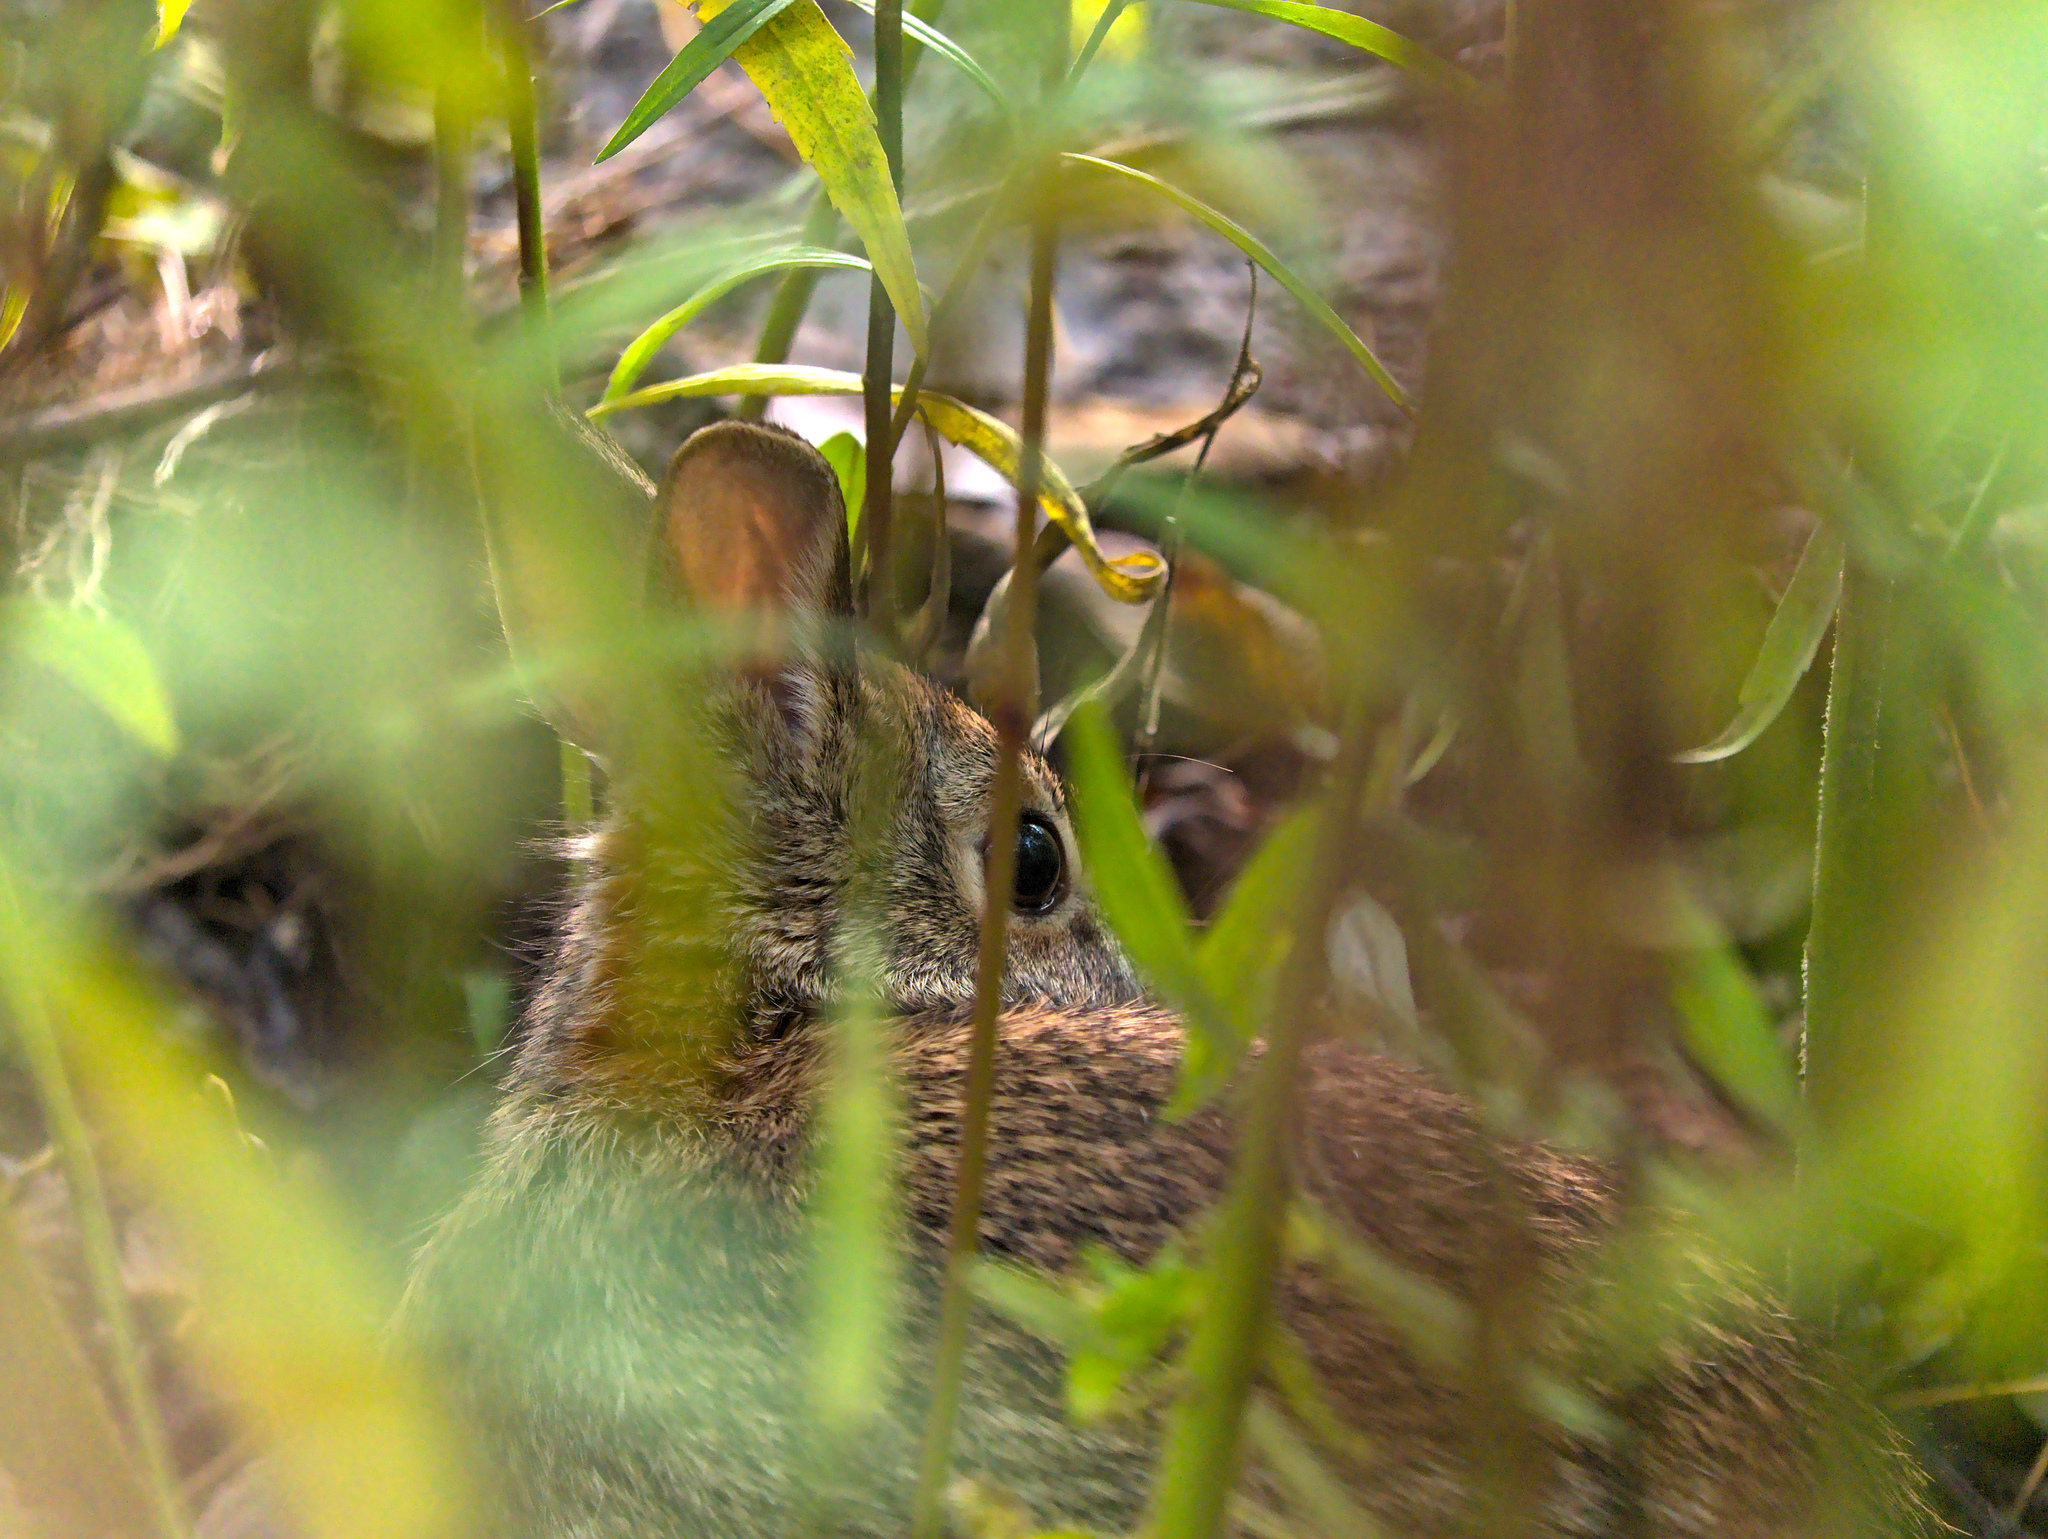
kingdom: Animalia
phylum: Chordata
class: Mammalia
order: Lagomorpha
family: Leporidae
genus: Sylvilagus
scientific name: Sylvilagus floridanus
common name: Eastern cottontail
